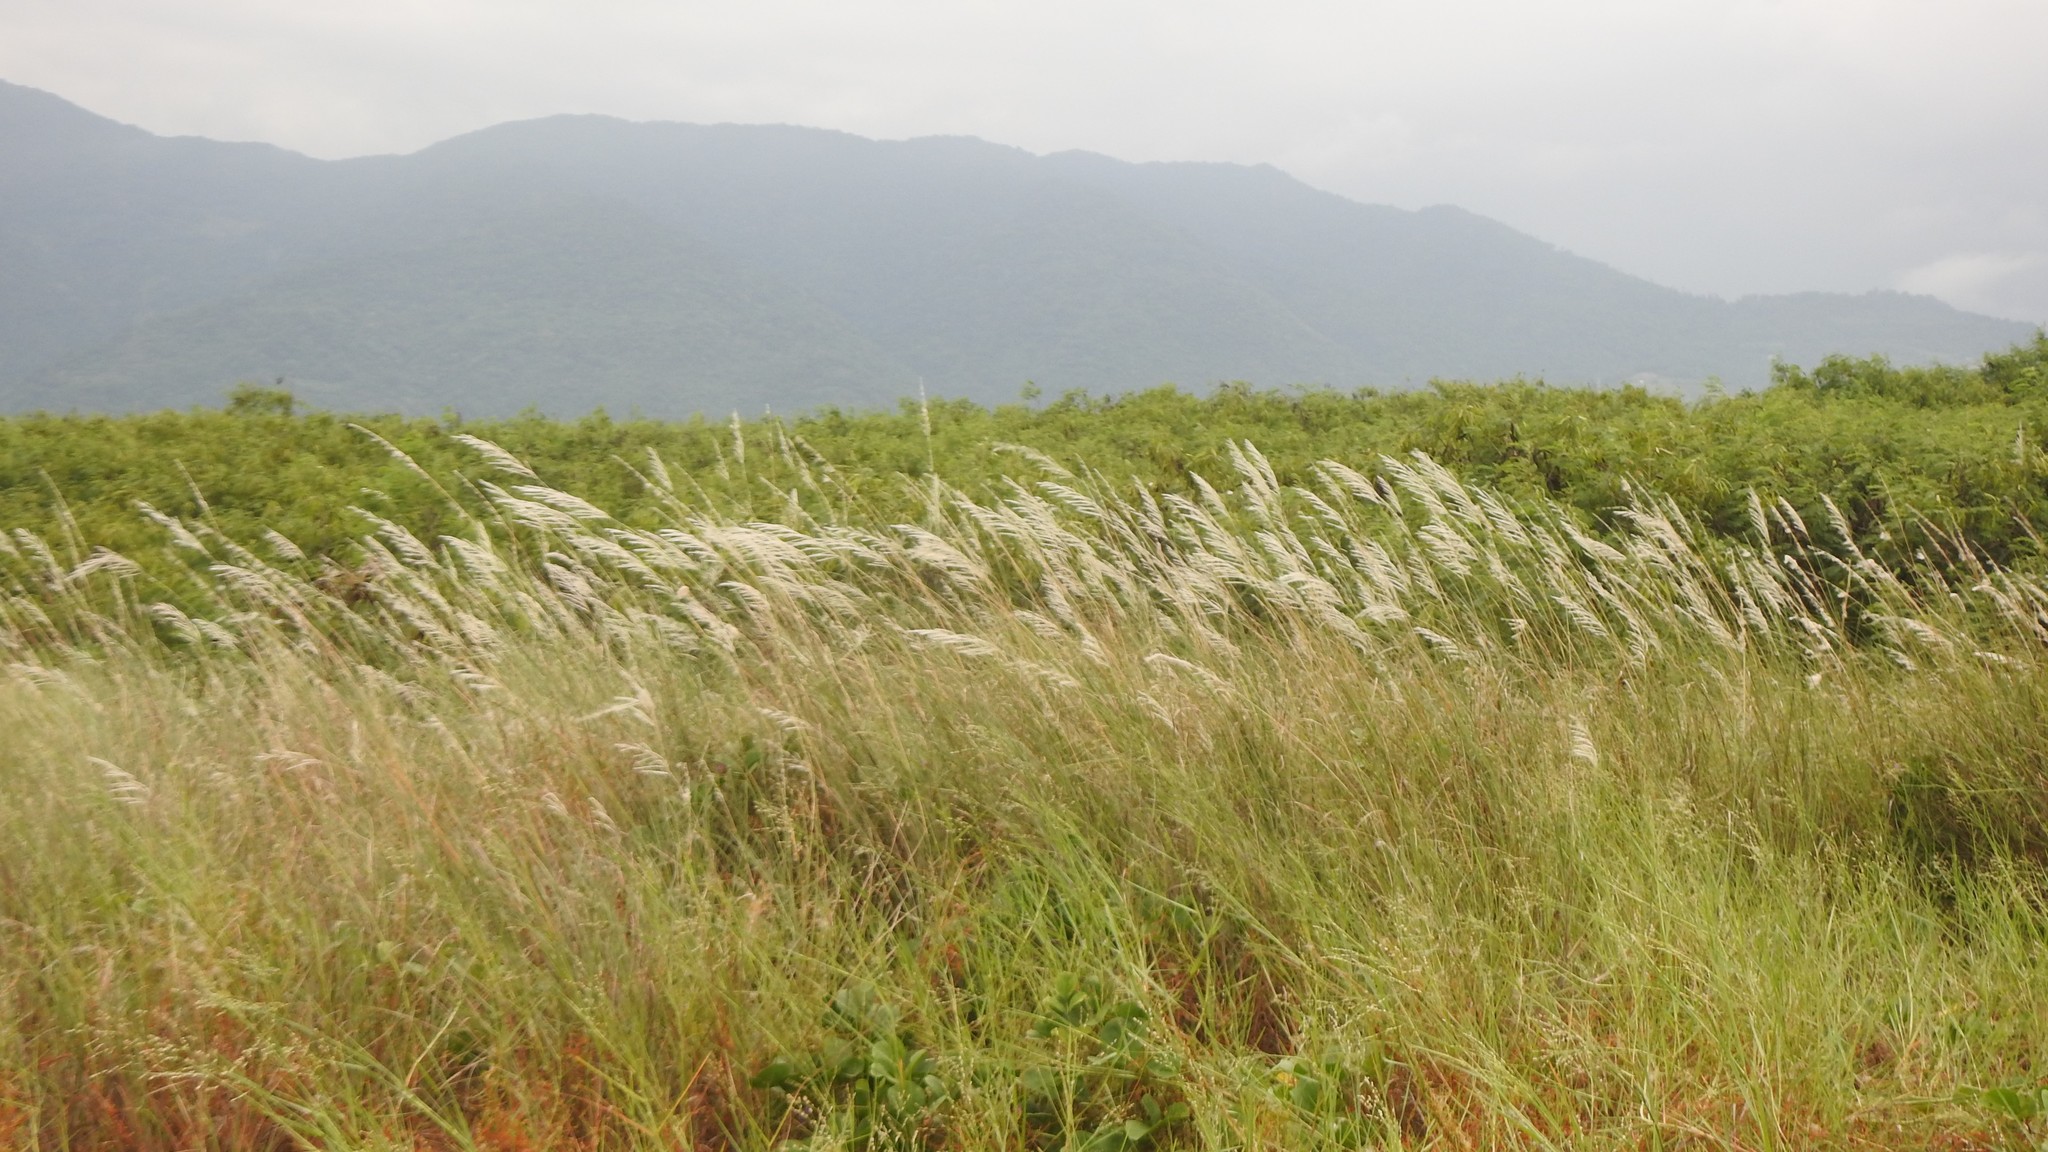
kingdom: Plantae
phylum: Tracheophyta
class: Liliopsida
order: Poales
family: Poaceae
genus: Saccharum
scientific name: Saccharum spontaneum
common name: Wild sugarcane
